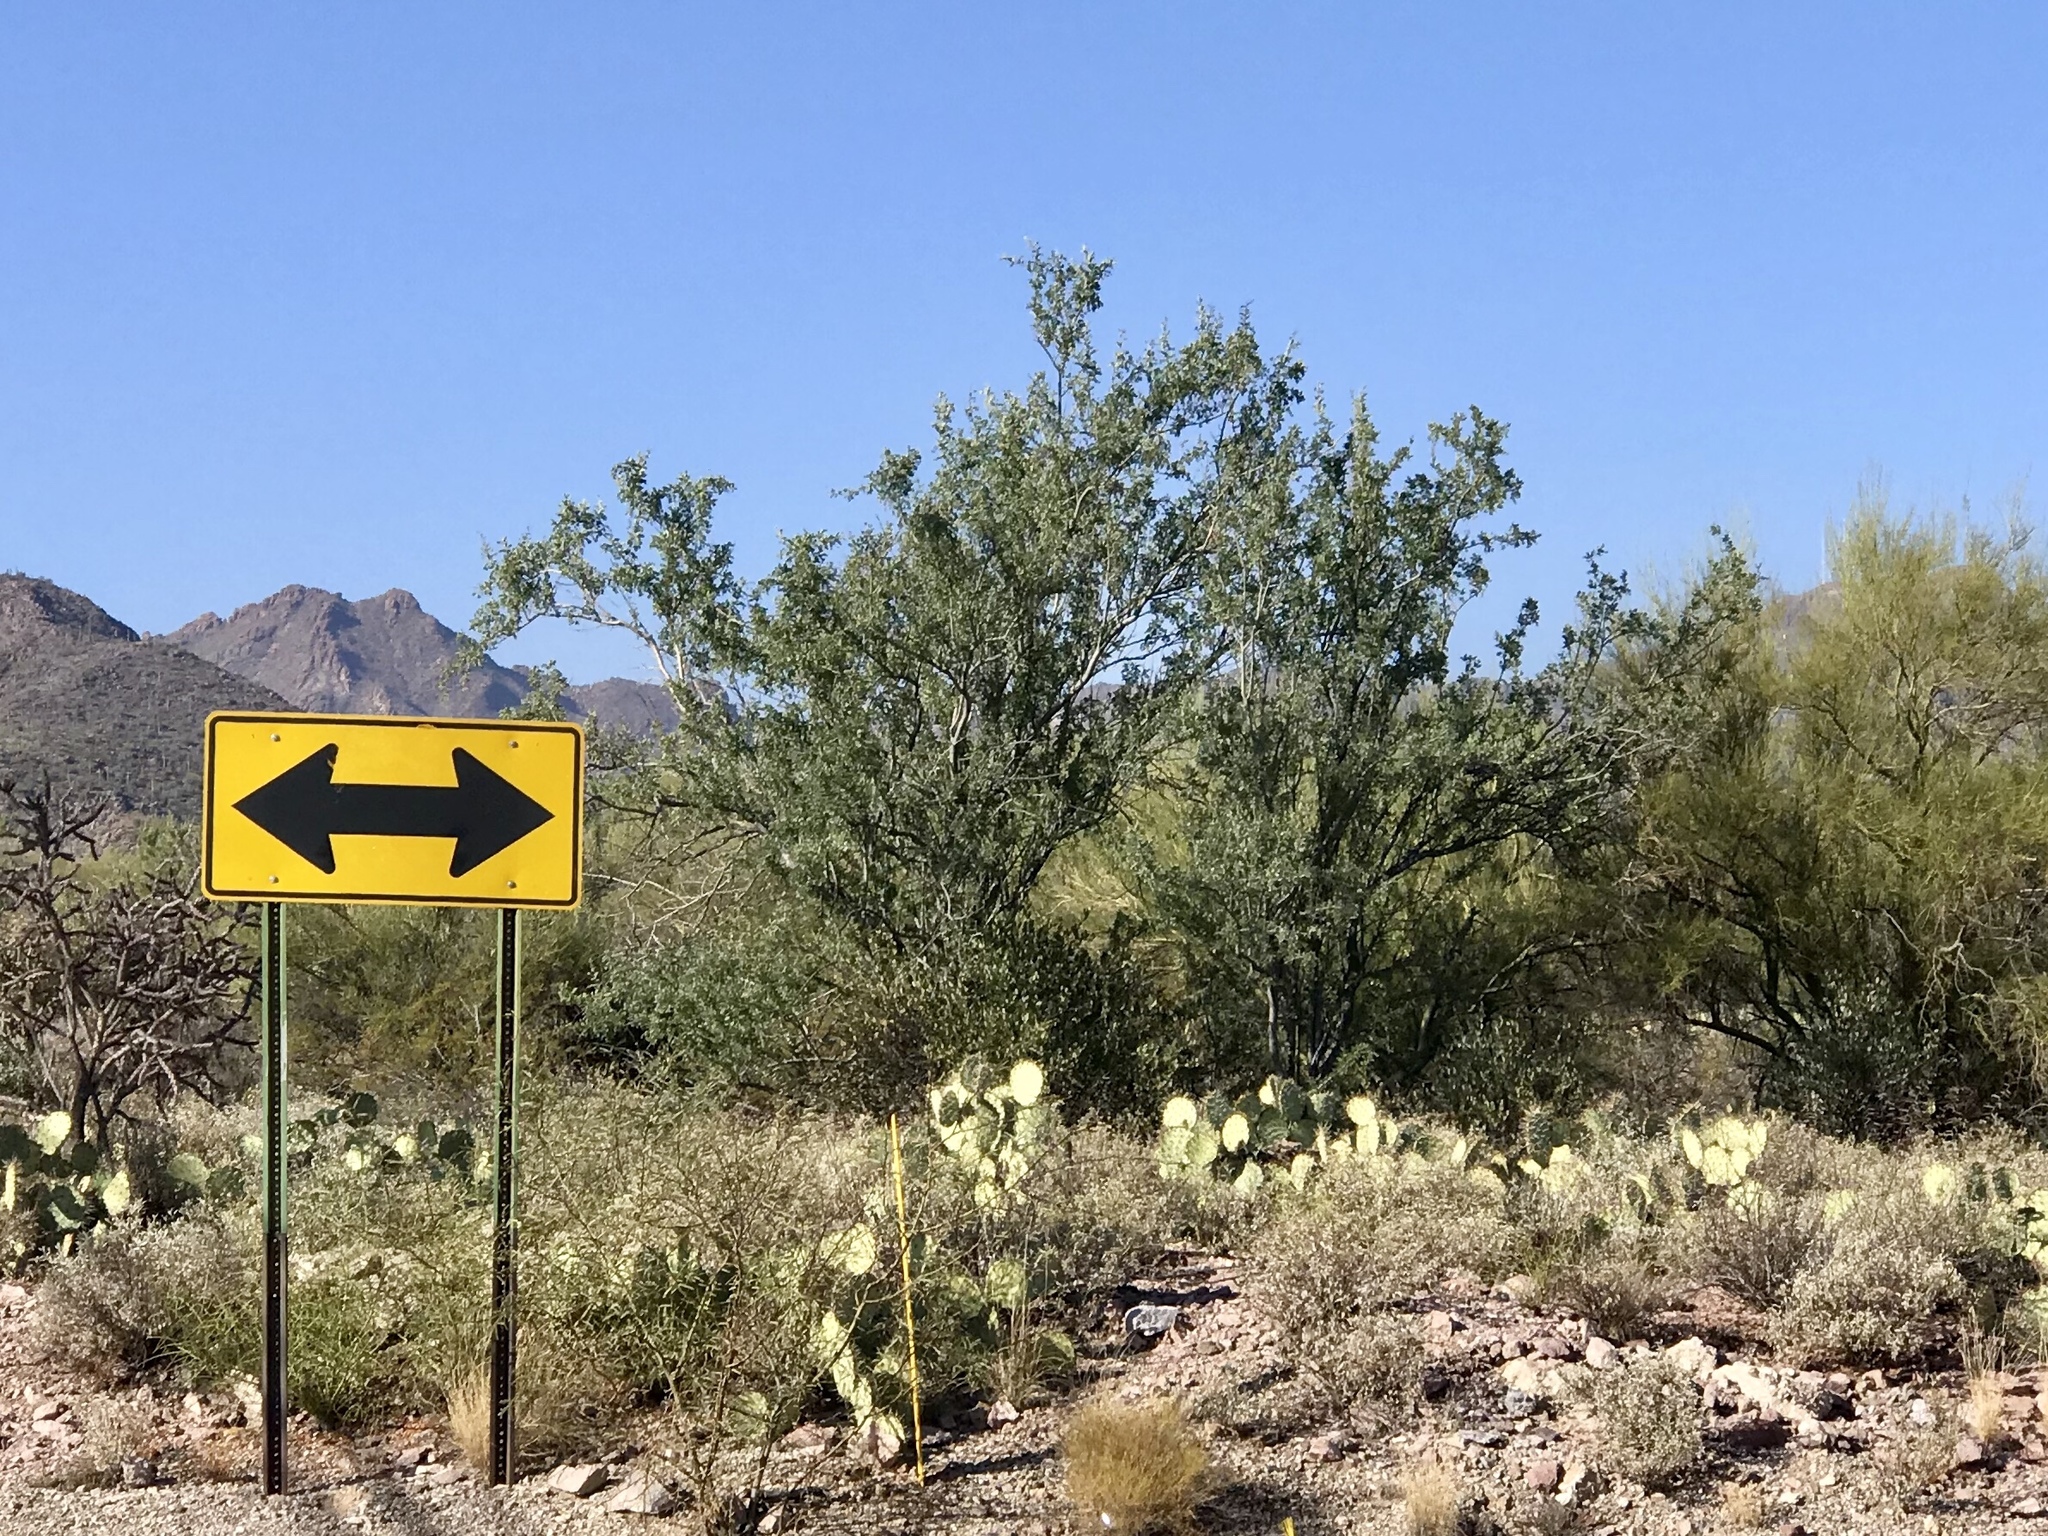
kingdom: Plantae
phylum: Tracheophyta
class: Magnoliopsida
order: Fabales
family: Fabaceae
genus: Olneya
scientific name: Olneya tesota
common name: Desert ironwood
